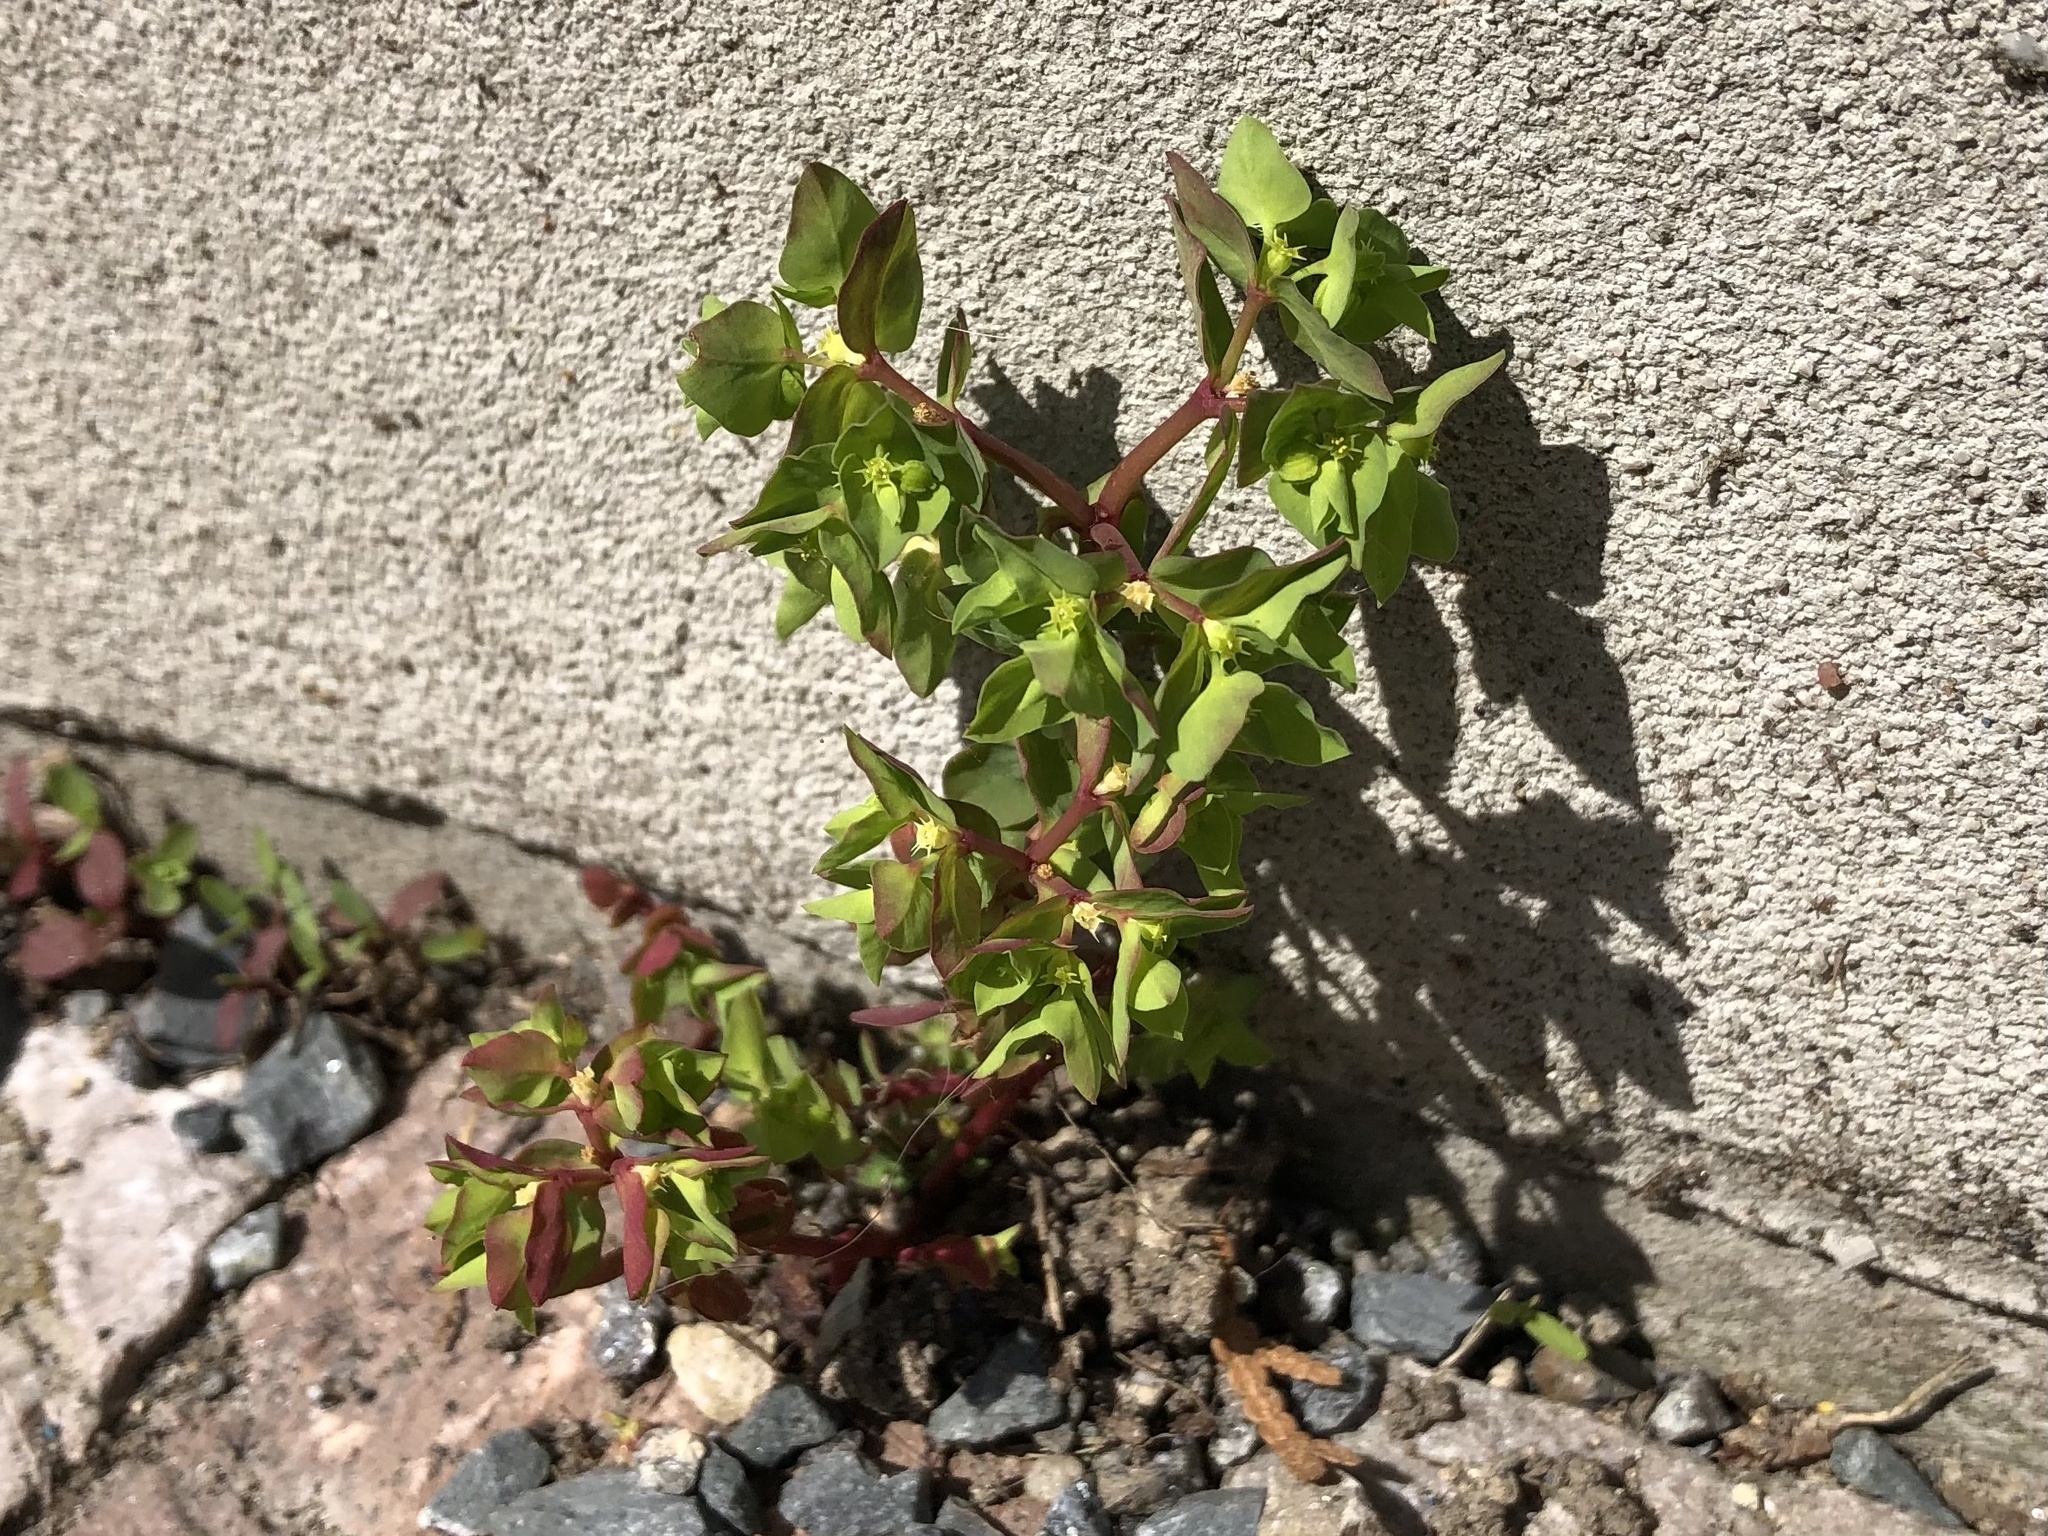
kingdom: Plantae
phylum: Tracheophyta
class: Magnoliopsida
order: Malpighiales
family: Euphorbiaceae
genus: Euphorbia
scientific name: Euphorbia peplus
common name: Petty spurge
